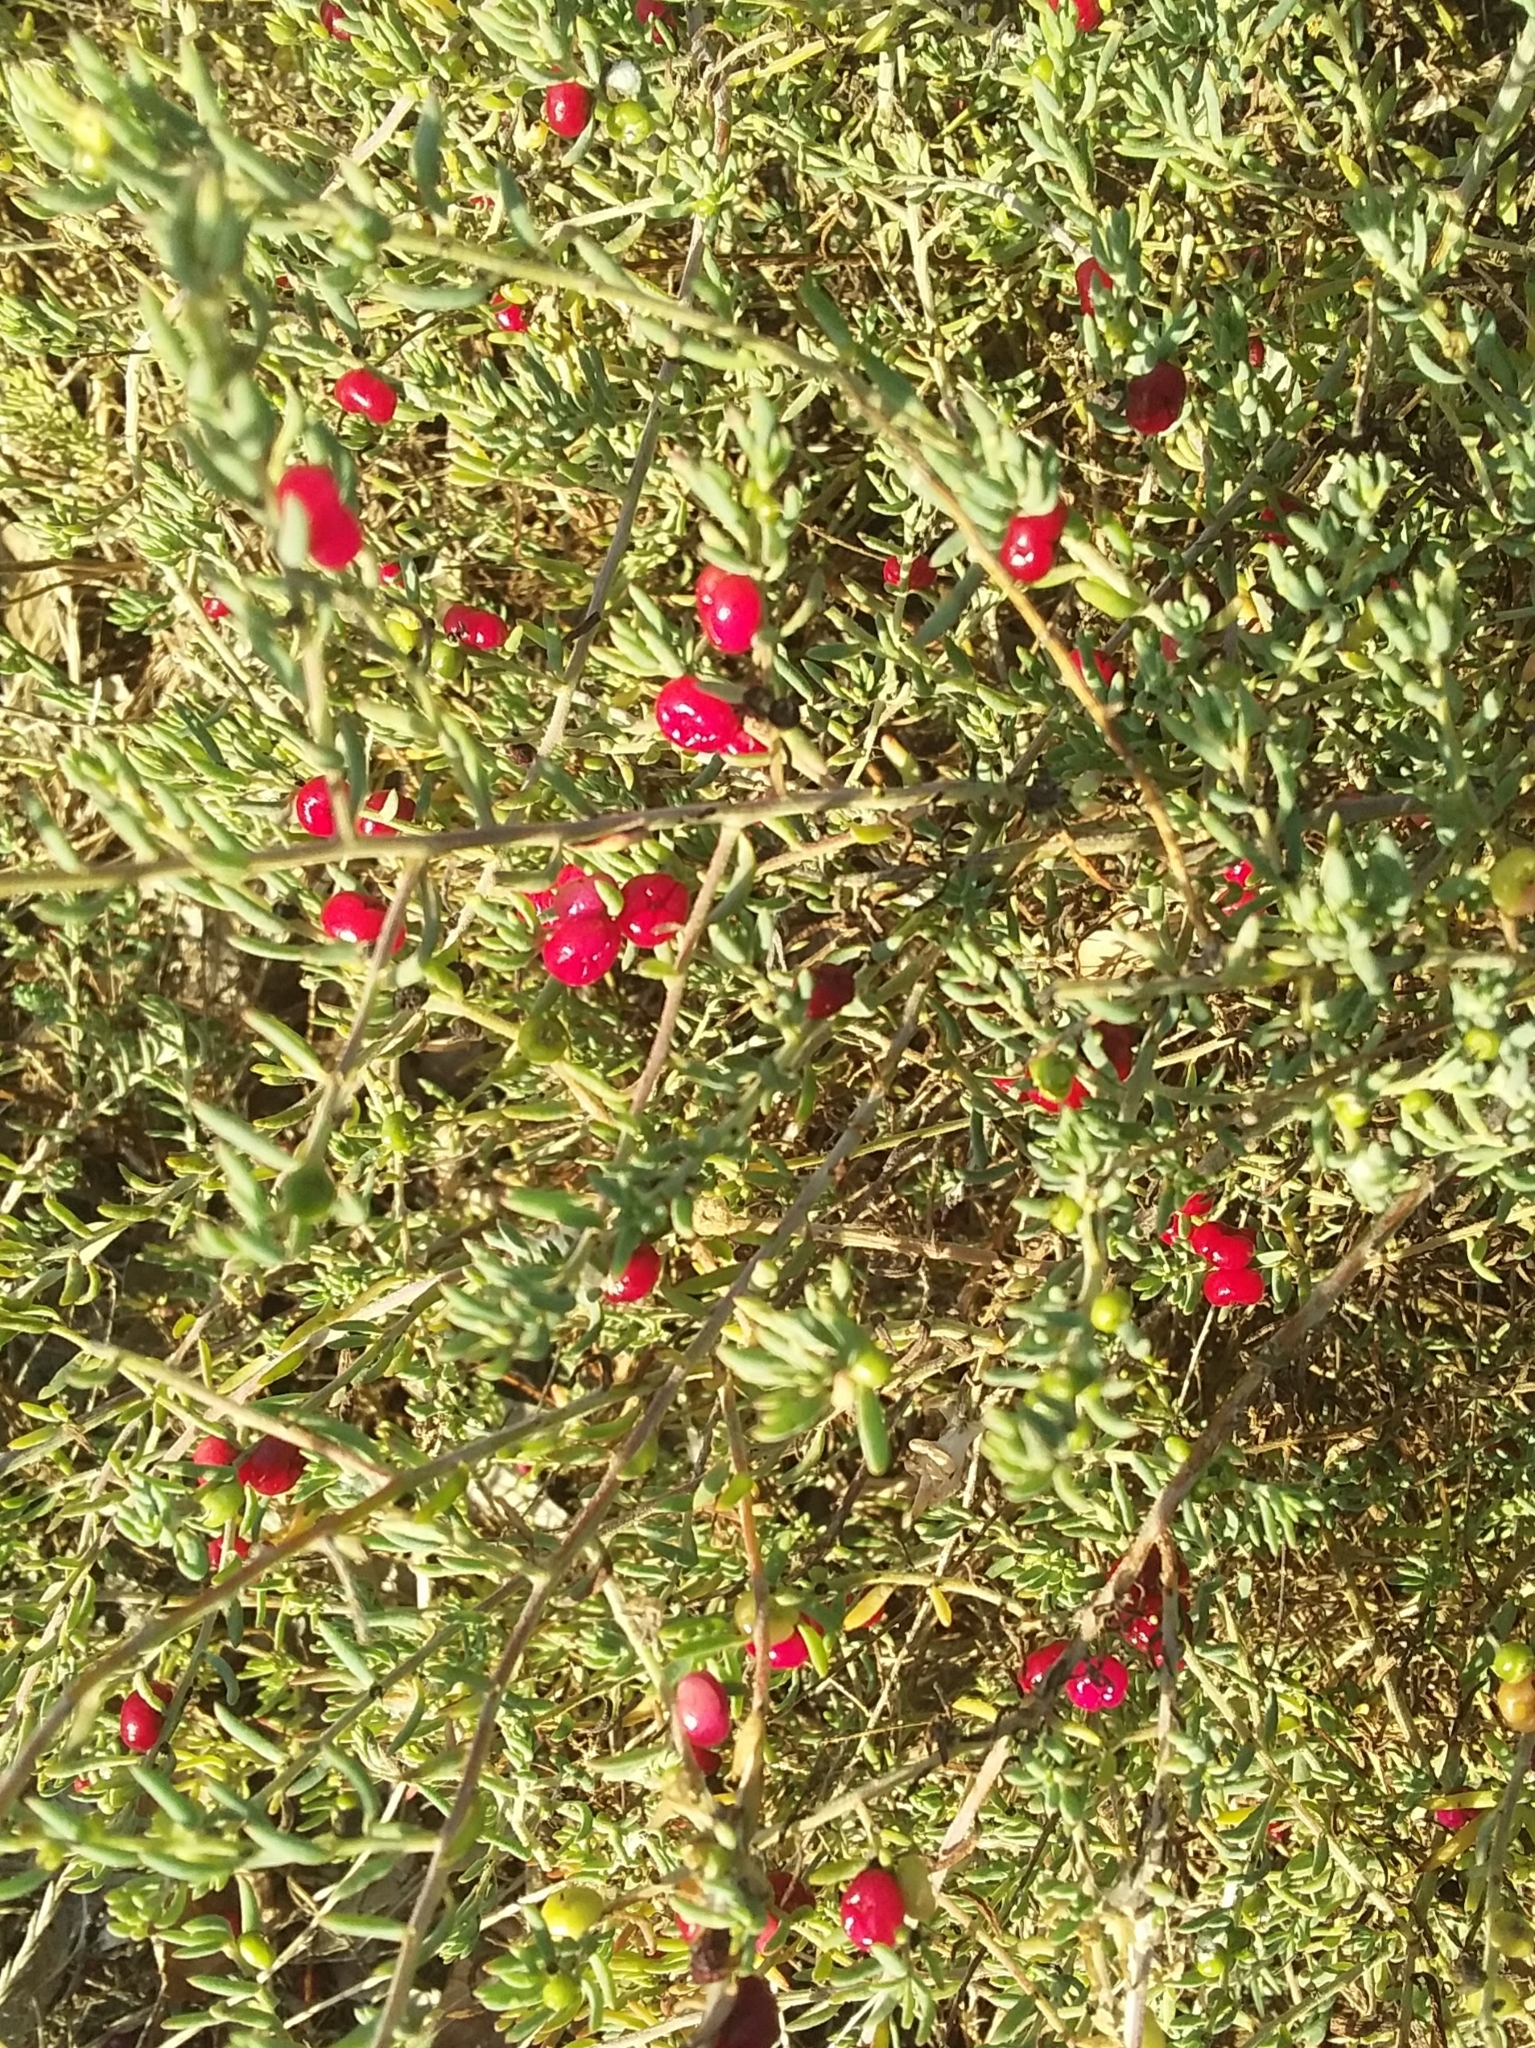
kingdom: Plantae
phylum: Tracheophyta
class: Magnoliopsida
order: Caryophyllales
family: Amaranthaceae
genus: Enchylaena
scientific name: Enchylaena tomentosa
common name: Ruby saltbush
